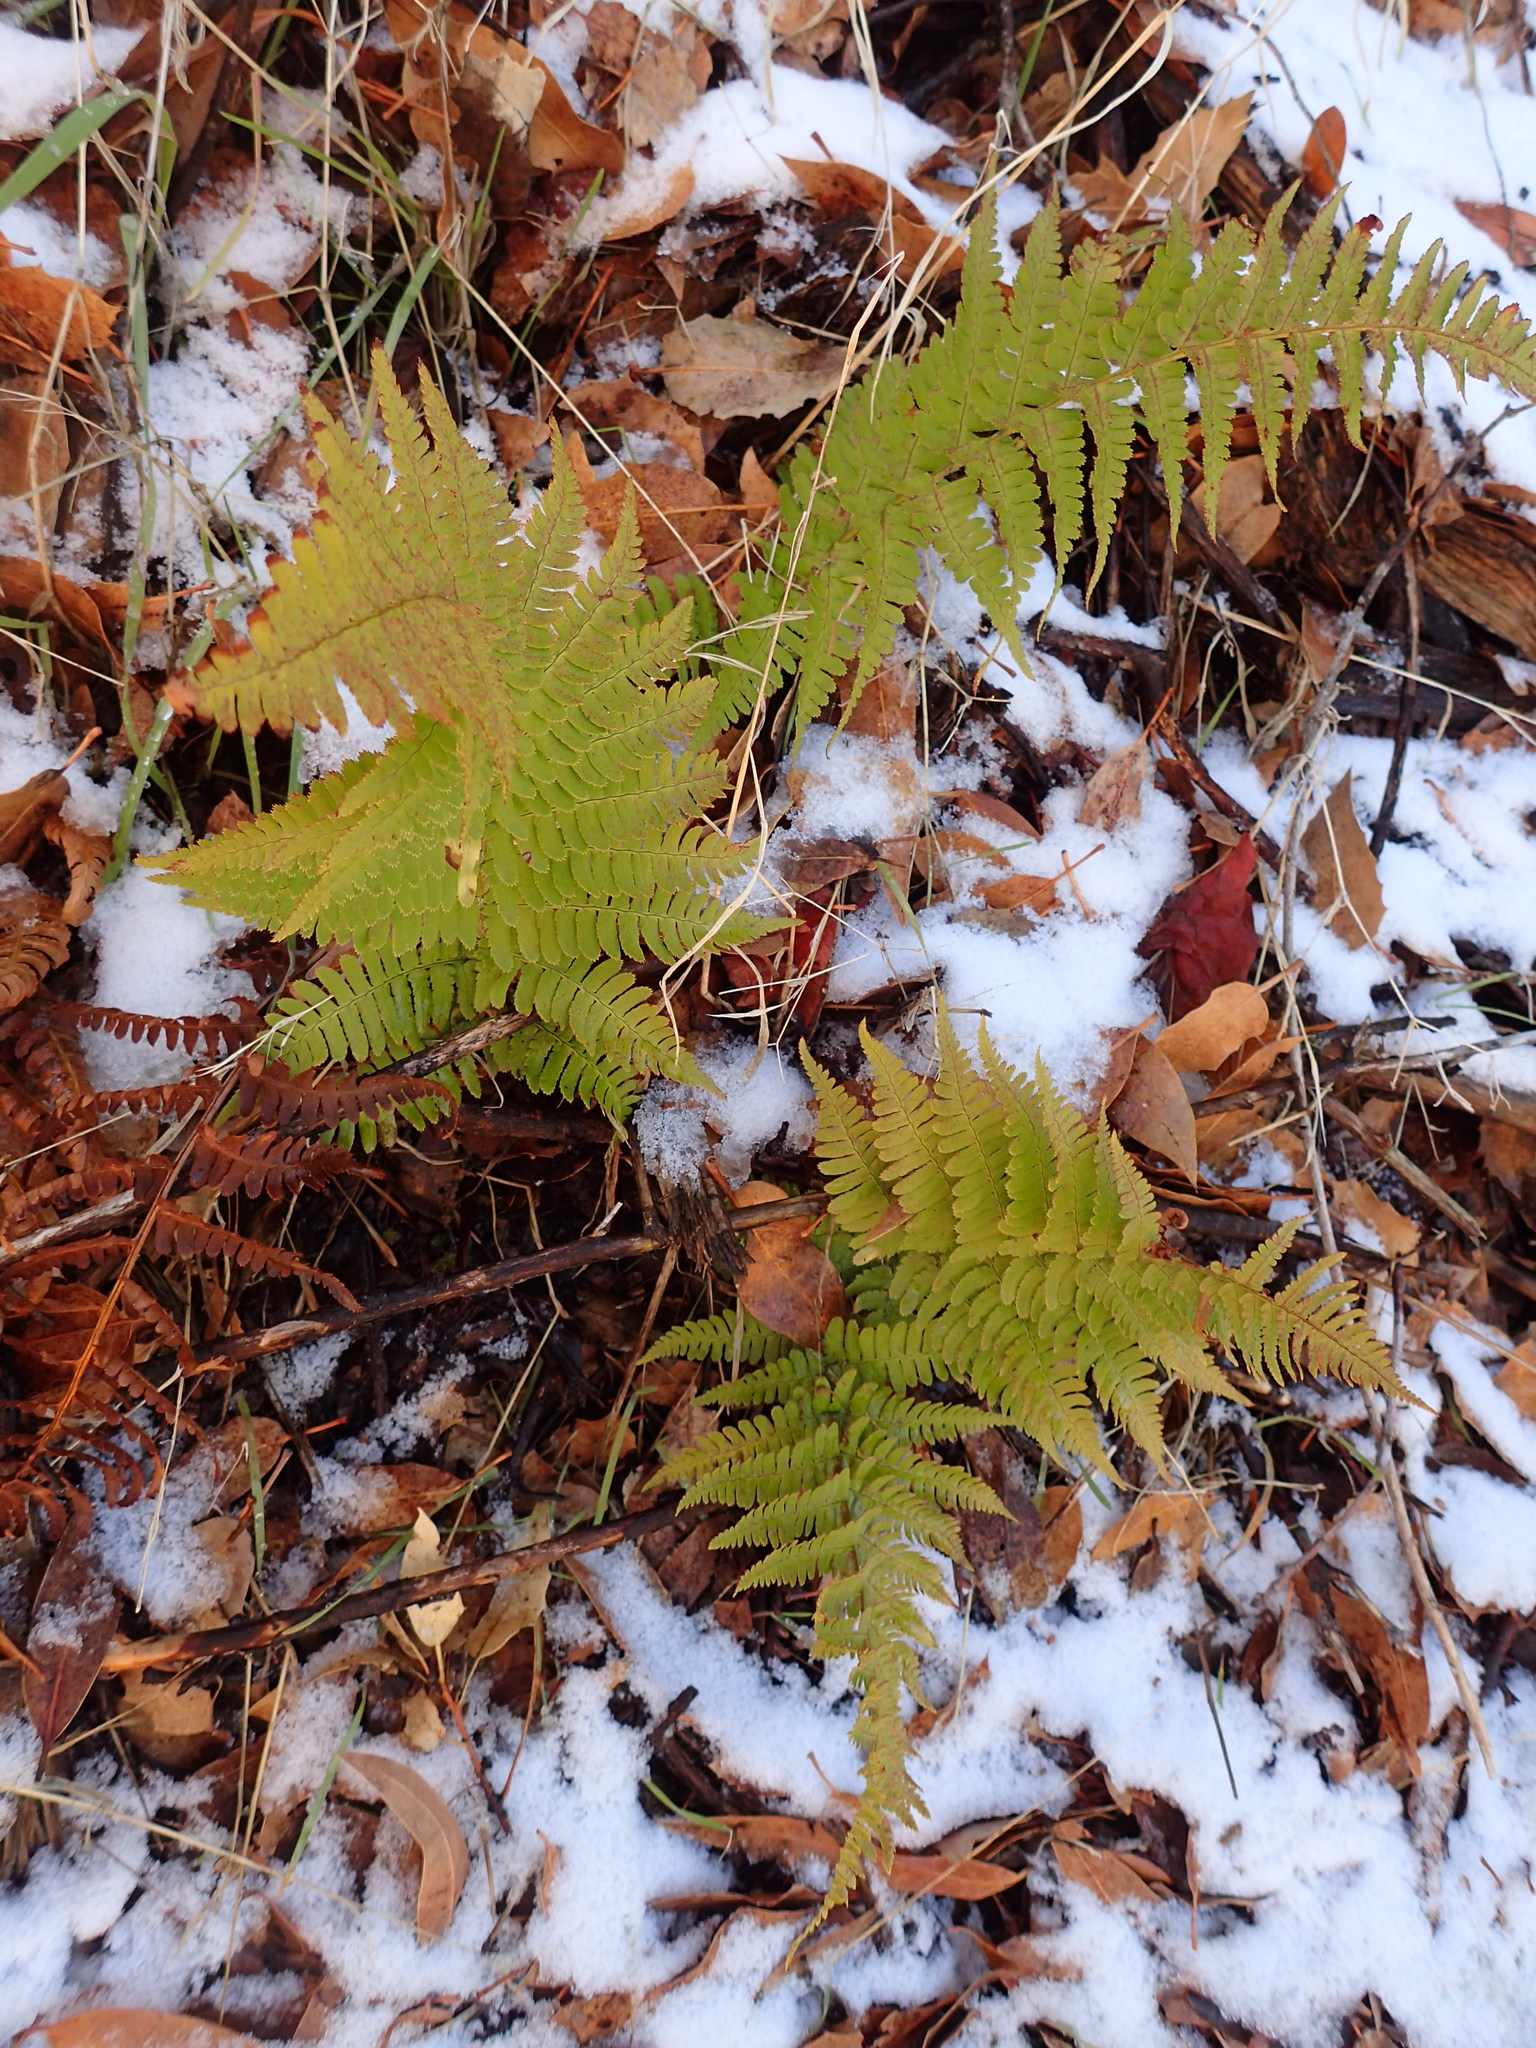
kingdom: Plantae
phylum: Tracheophyta
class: Polypodiopsida
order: Polypodiales
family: Dryopteridaceae
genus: Dryopteris
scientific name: Dryopteris arguta
